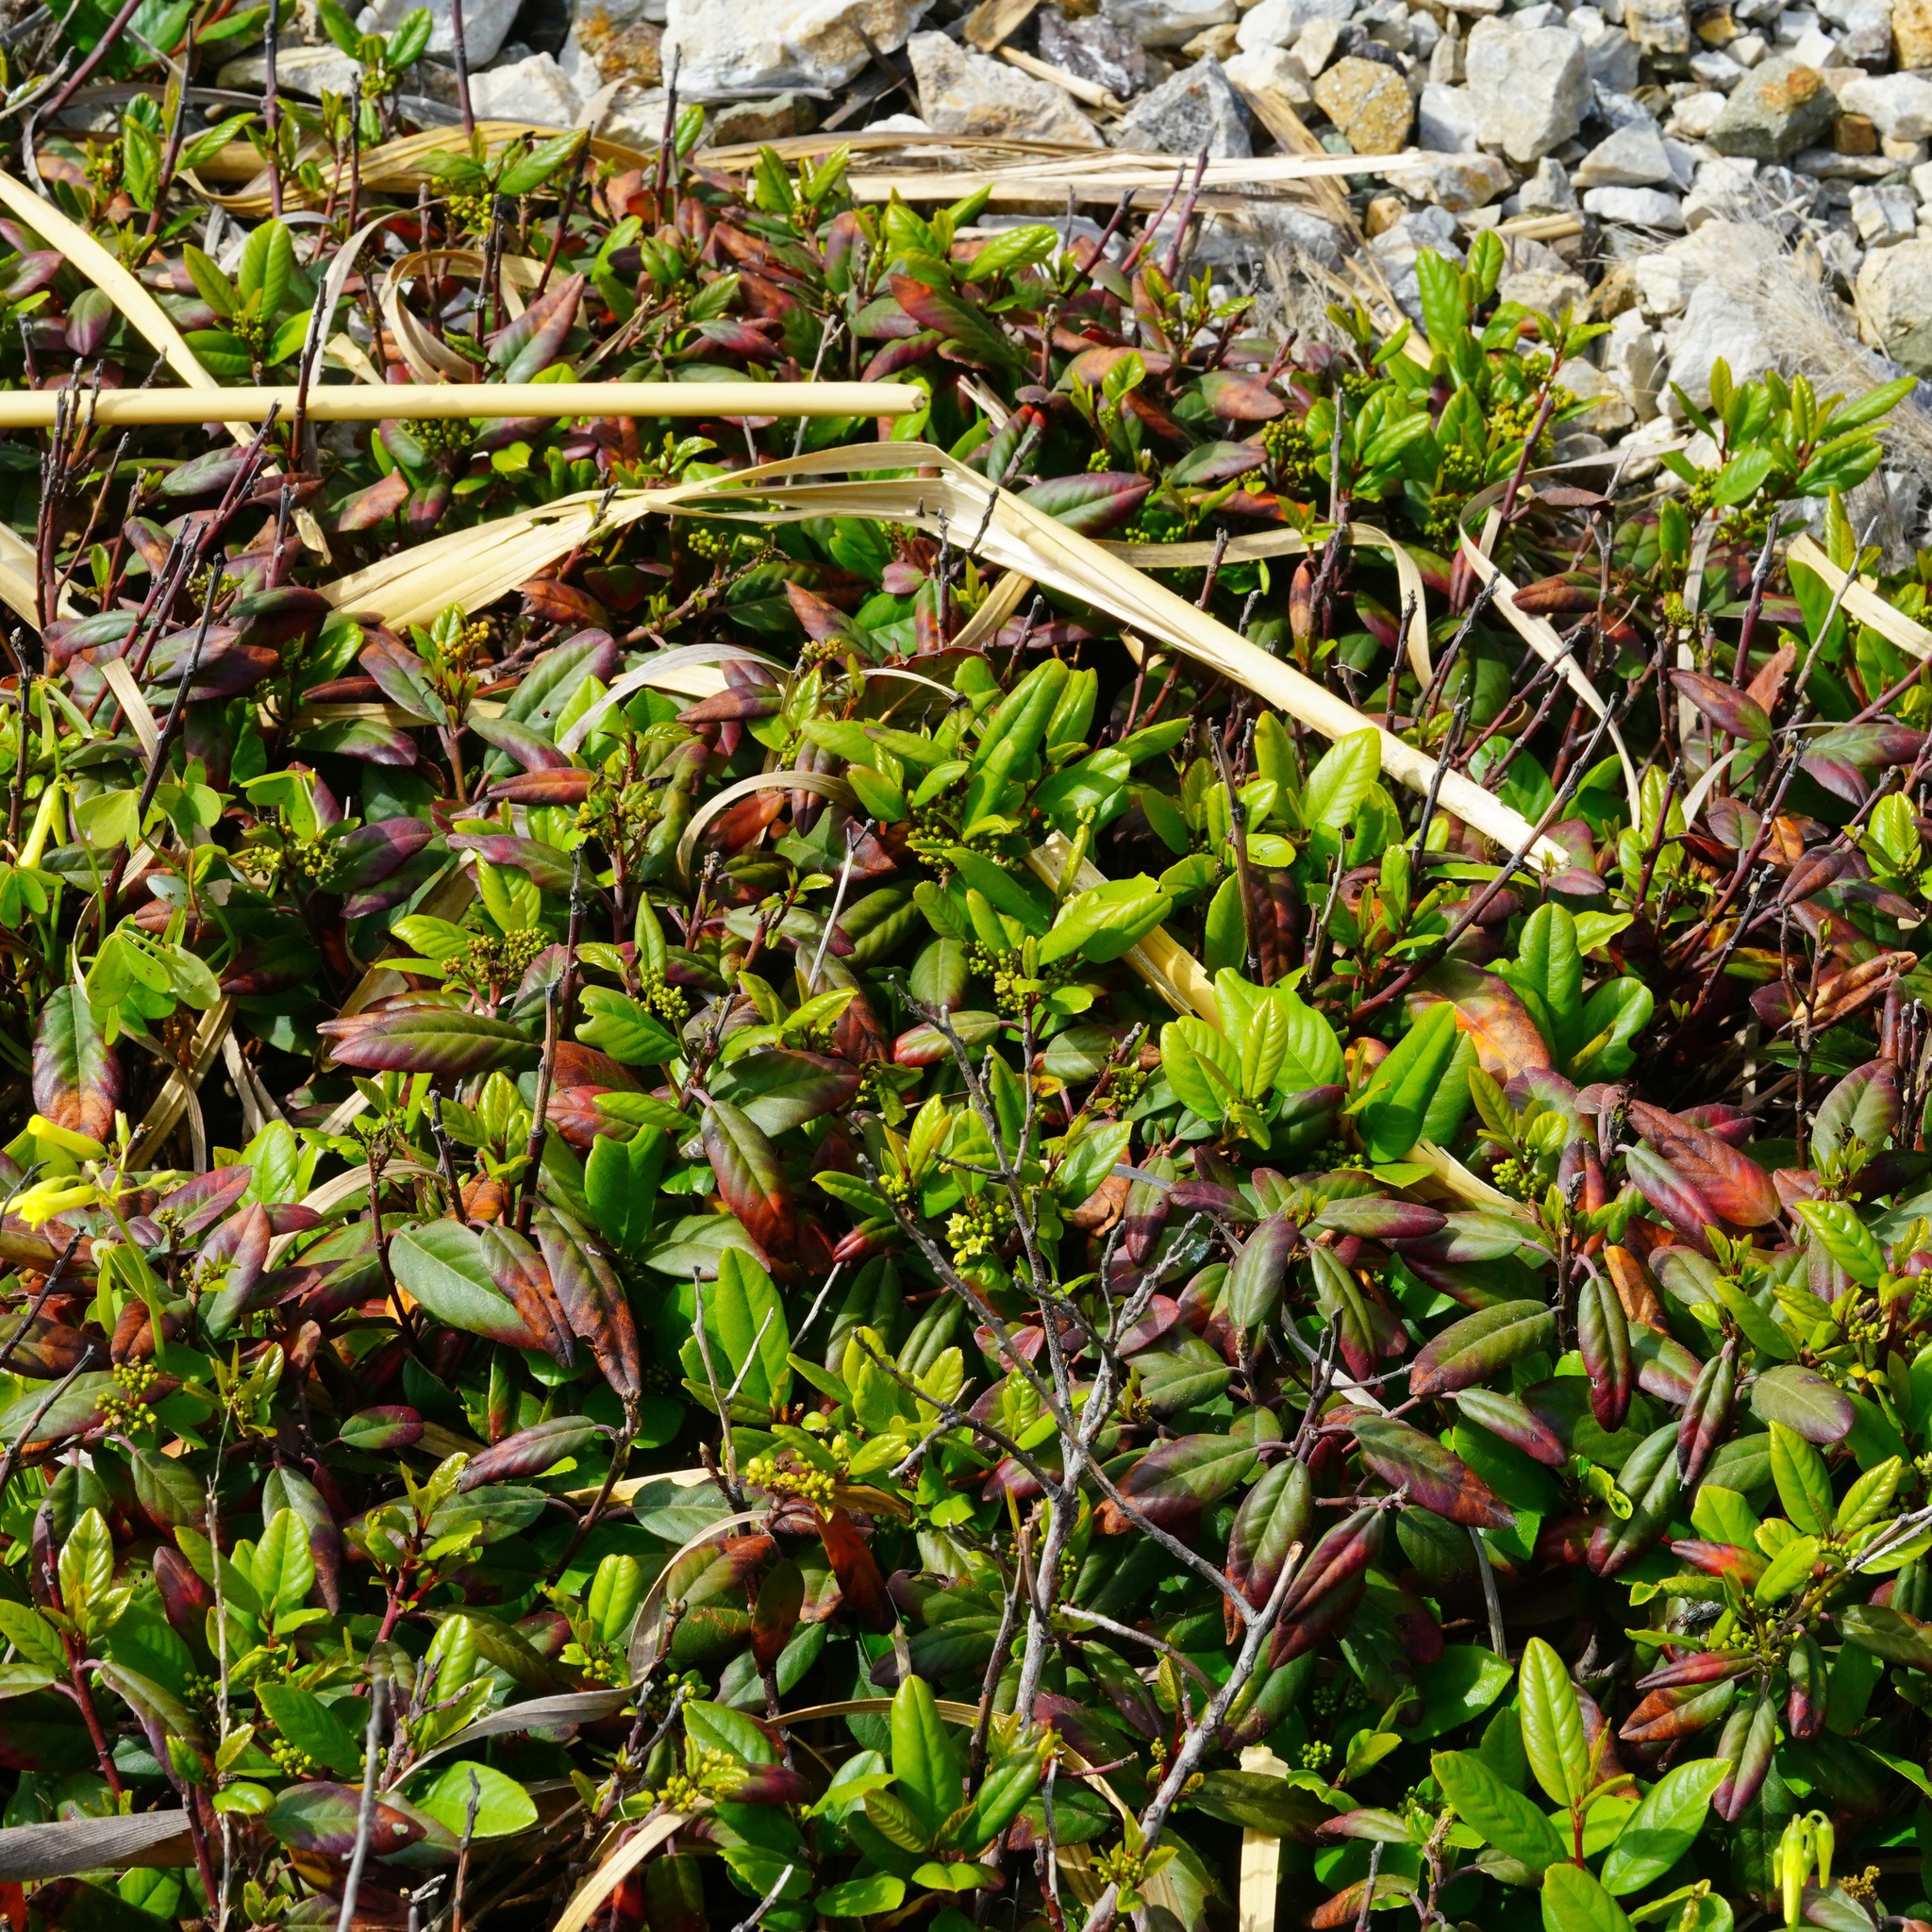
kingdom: Plantae
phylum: Tracheophyta
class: Magnoliopsida
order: Rosales
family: Rhamnaceae
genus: Frangula
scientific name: Frangula californica
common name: California buckthorn
